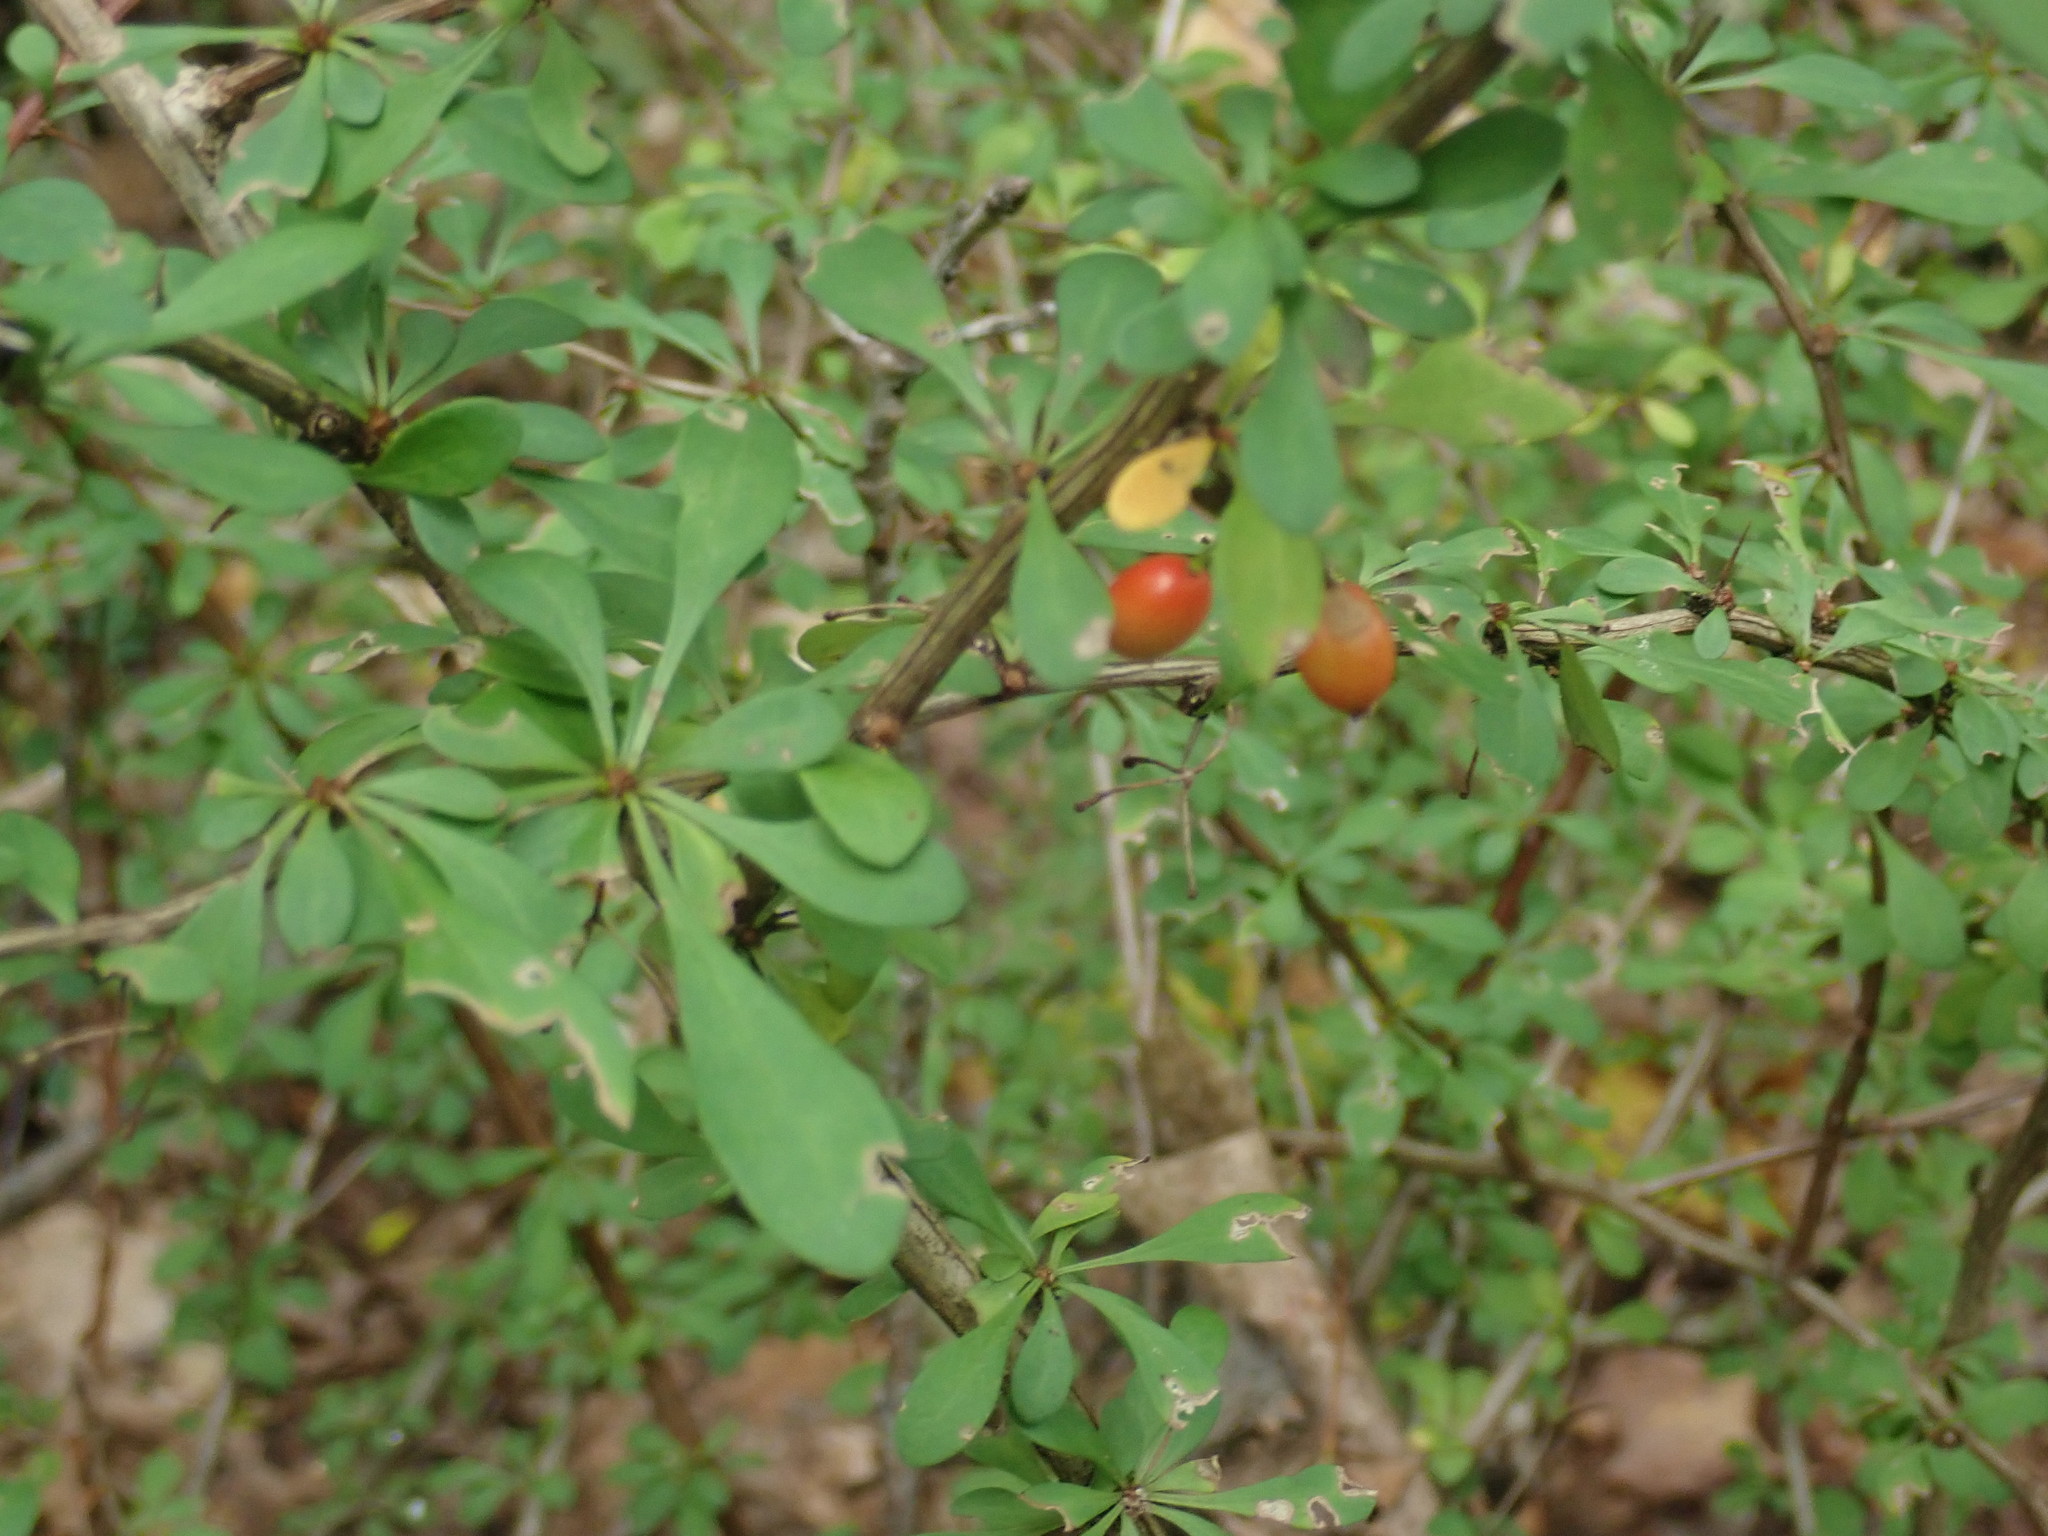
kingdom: Plantae
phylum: Tracheophyta
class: Magnoliopsida
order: Ranunculales
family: Berberidaceae
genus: Berberis
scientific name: Berberis thunbergii
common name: Japanese barberry
